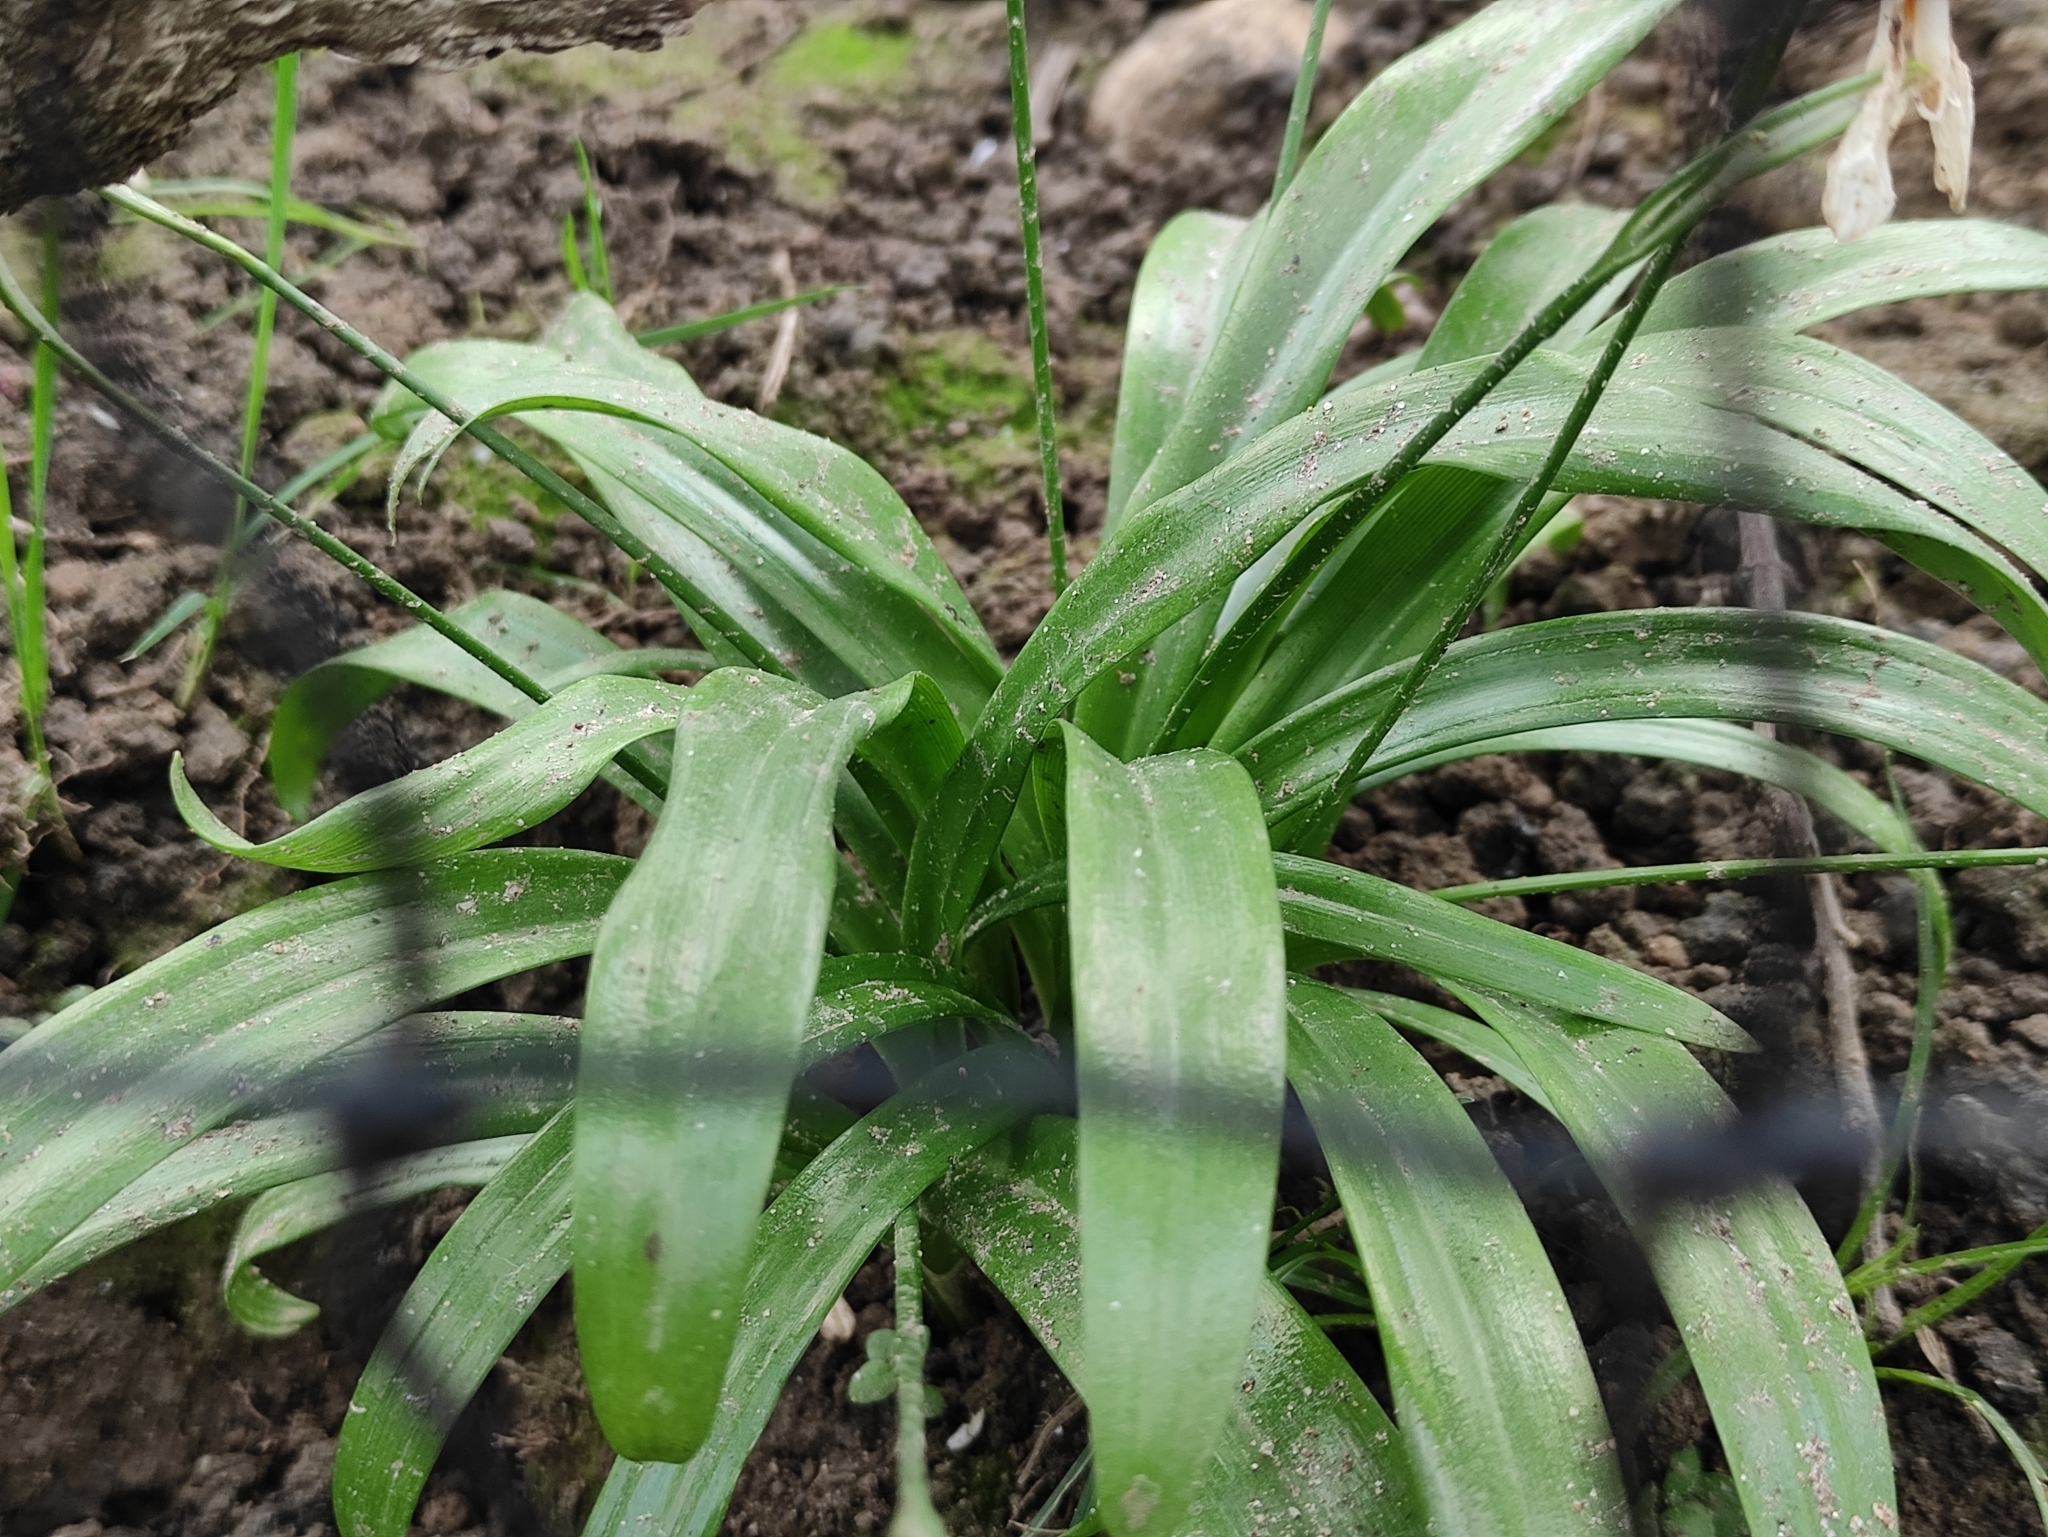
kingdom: Plantae
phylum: Tracheophyta
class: Liliopsida
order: Asparagales
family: Amaryllidaceae
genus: Galanthus
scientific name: Galanthus woronowii
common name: Green snowdrop
